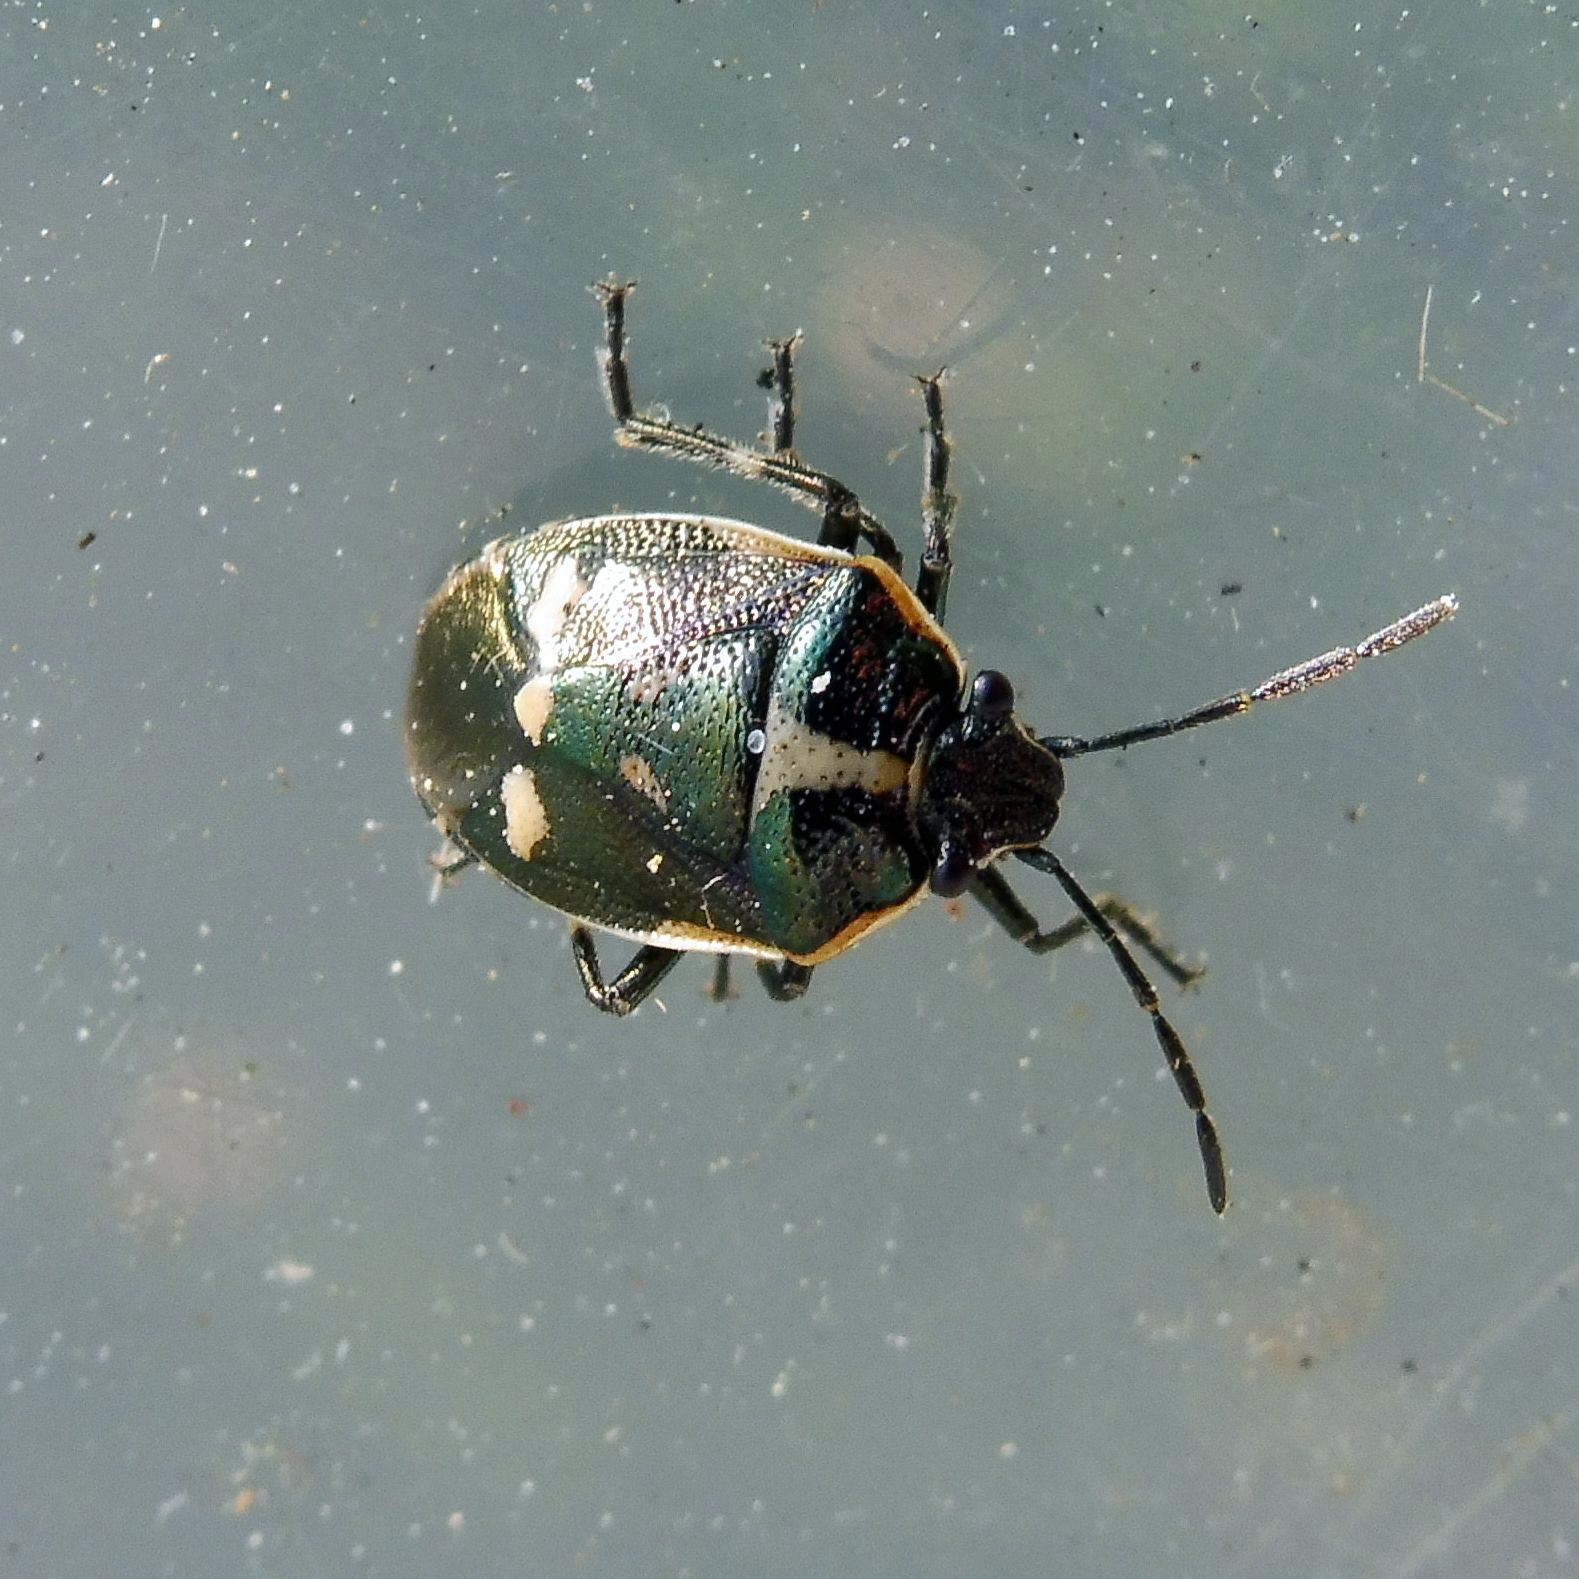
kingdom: Animalia
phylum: Arthropoda
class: Insecta
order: Hemiptera
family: Pentatomidae
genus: Eurydema
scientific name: Eurydema oleracea
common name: Cabbage bug
